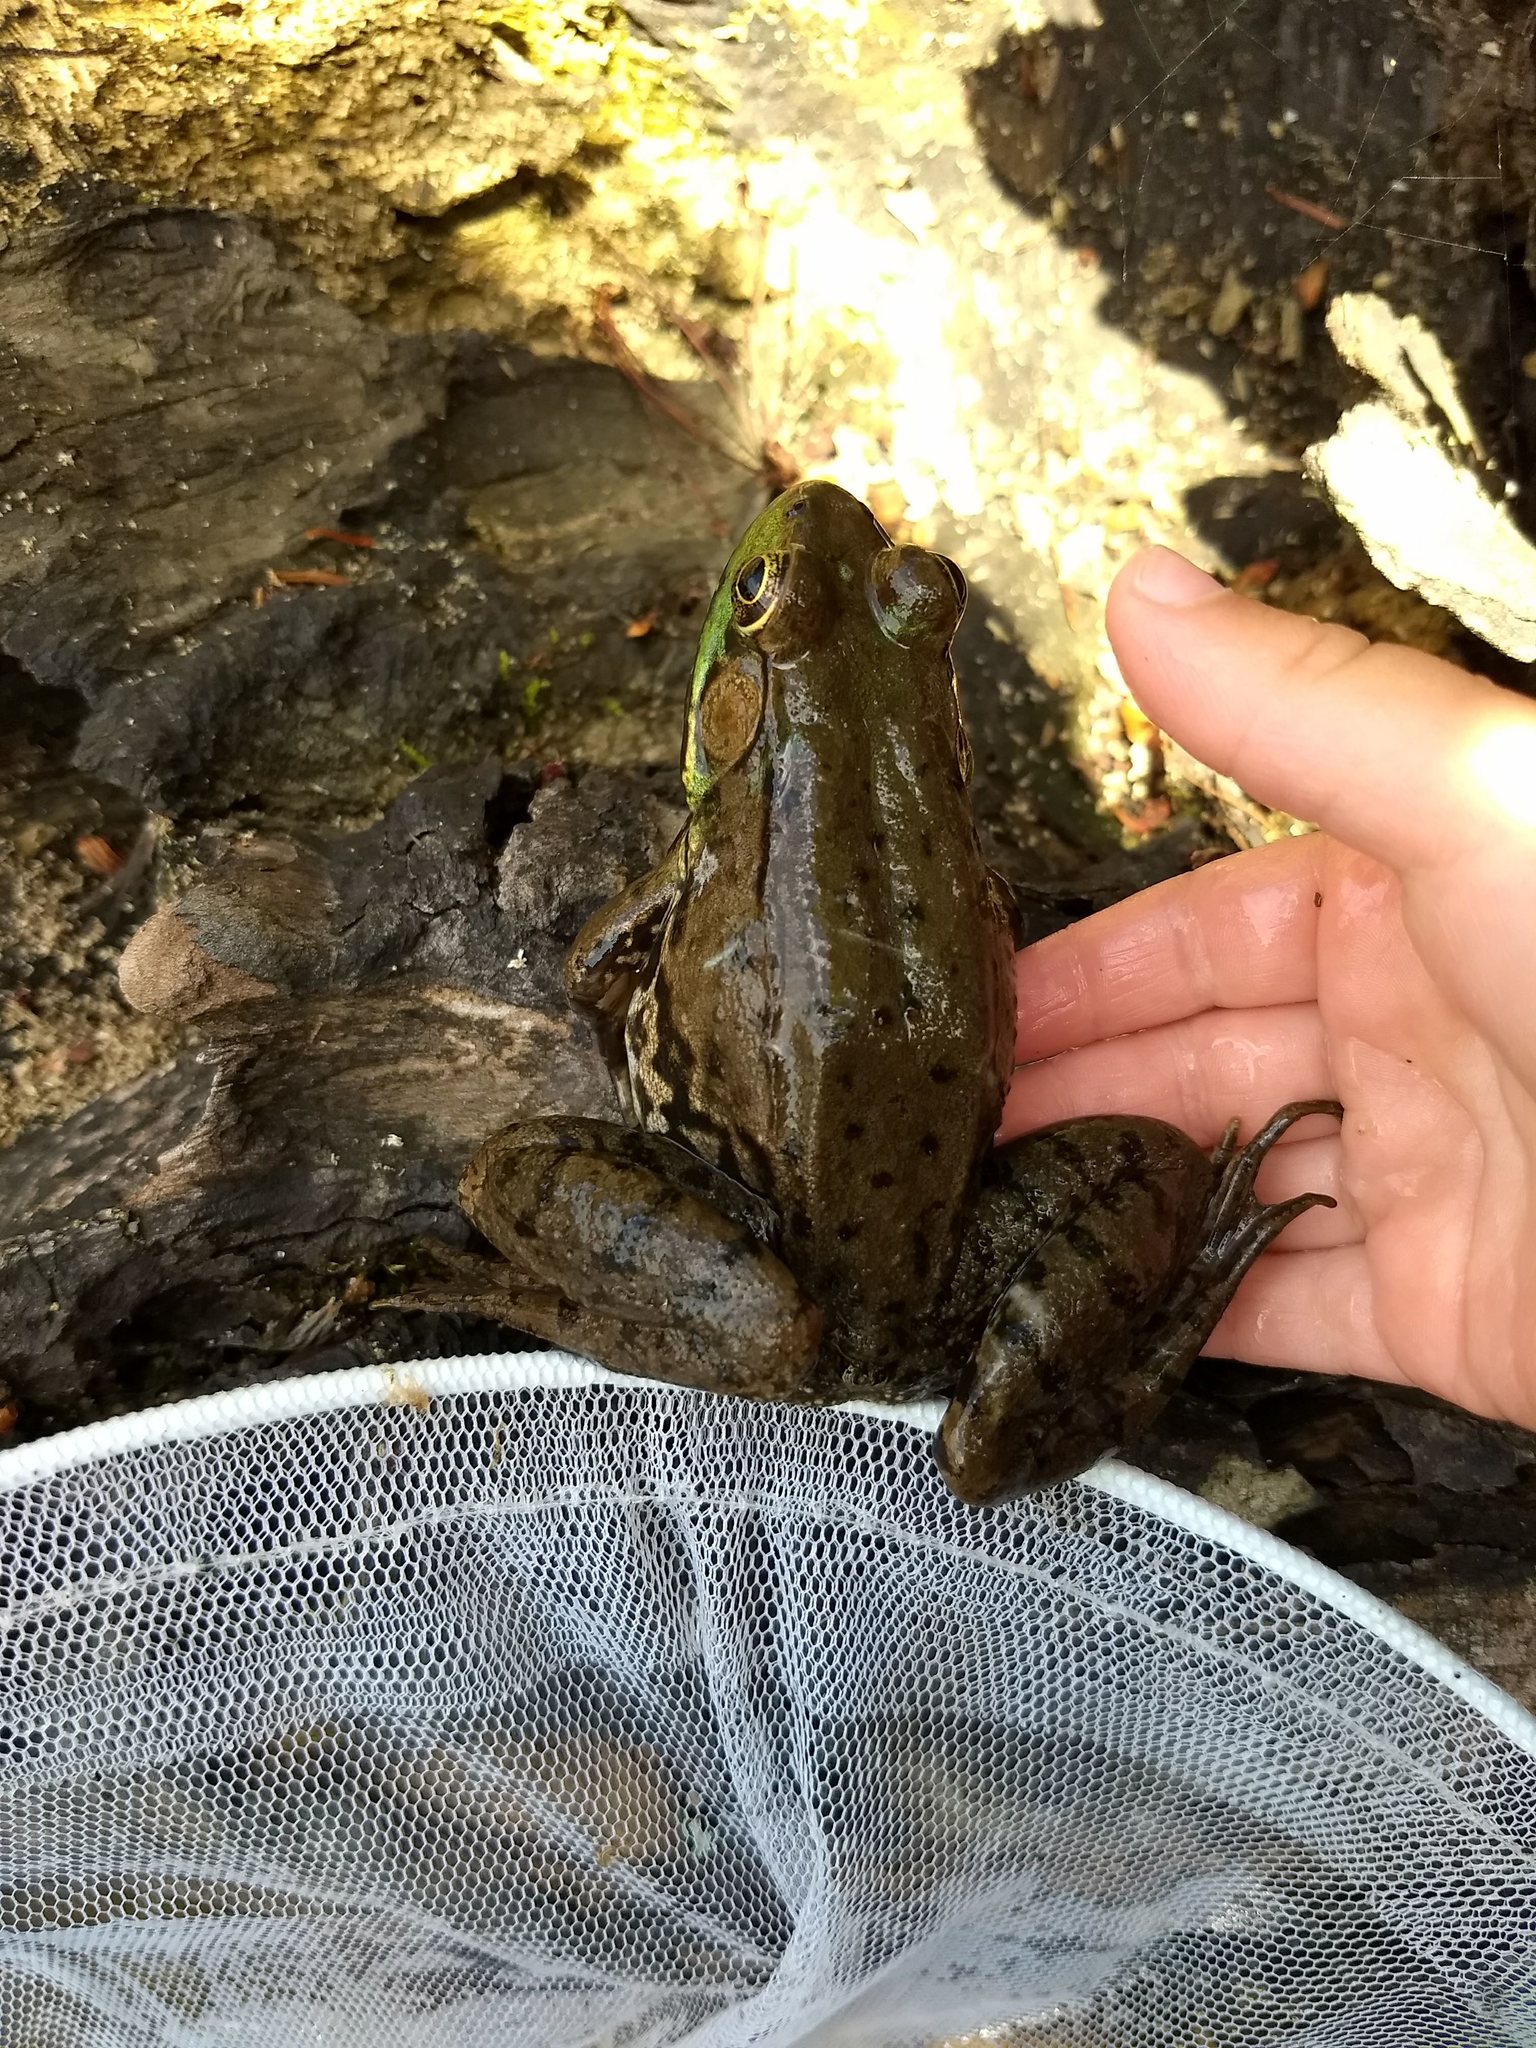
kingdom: Animalia
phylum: Chordata
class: Amphibia
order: Anura
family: Ranidae
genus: Lithobates
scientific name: Lithobates clamitans
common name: Green frog
